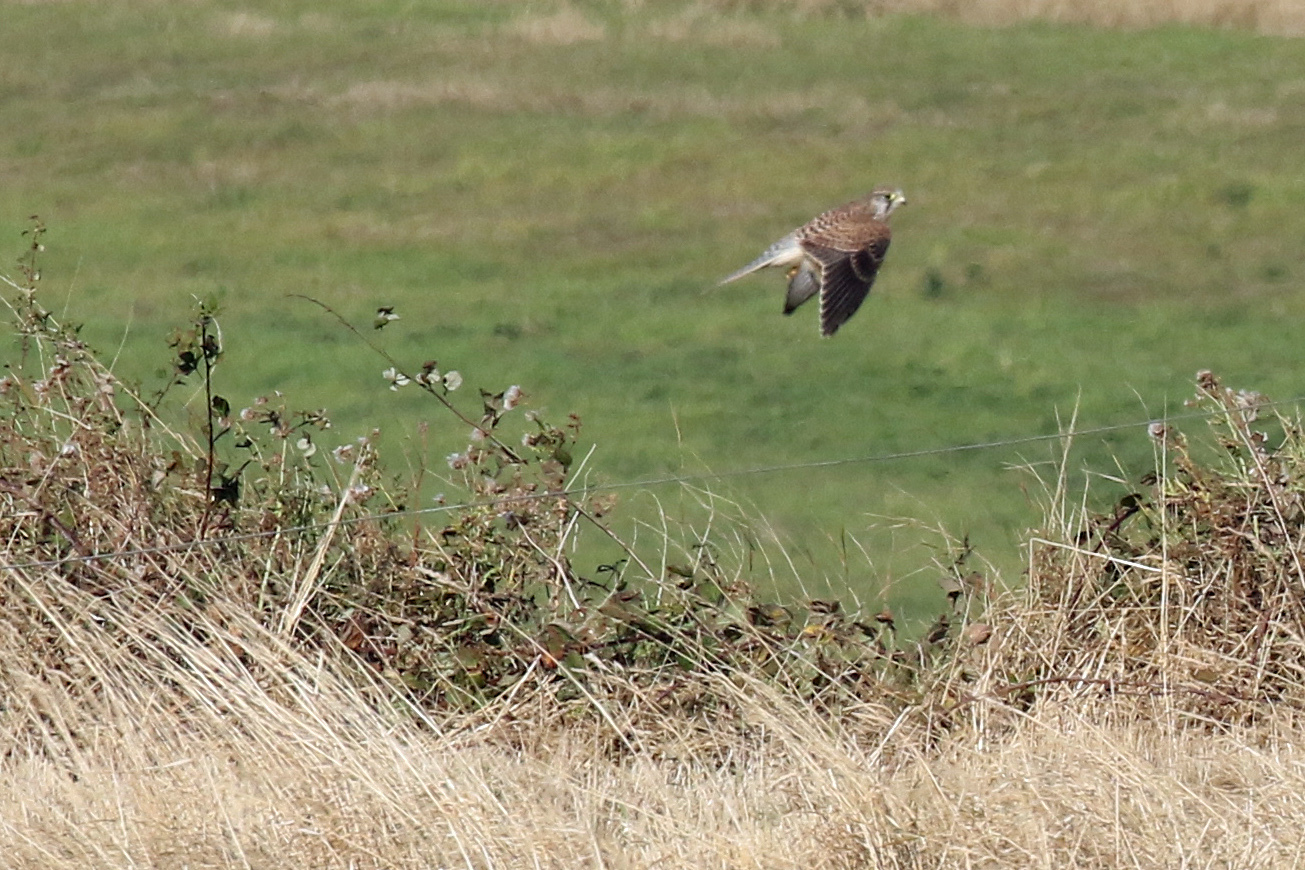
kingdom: Animalia
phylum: Chordata
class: Aves
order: Falconiformes
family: Falconidae
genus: Falco
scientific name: Falco tinnunculus
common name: Common kestrel
